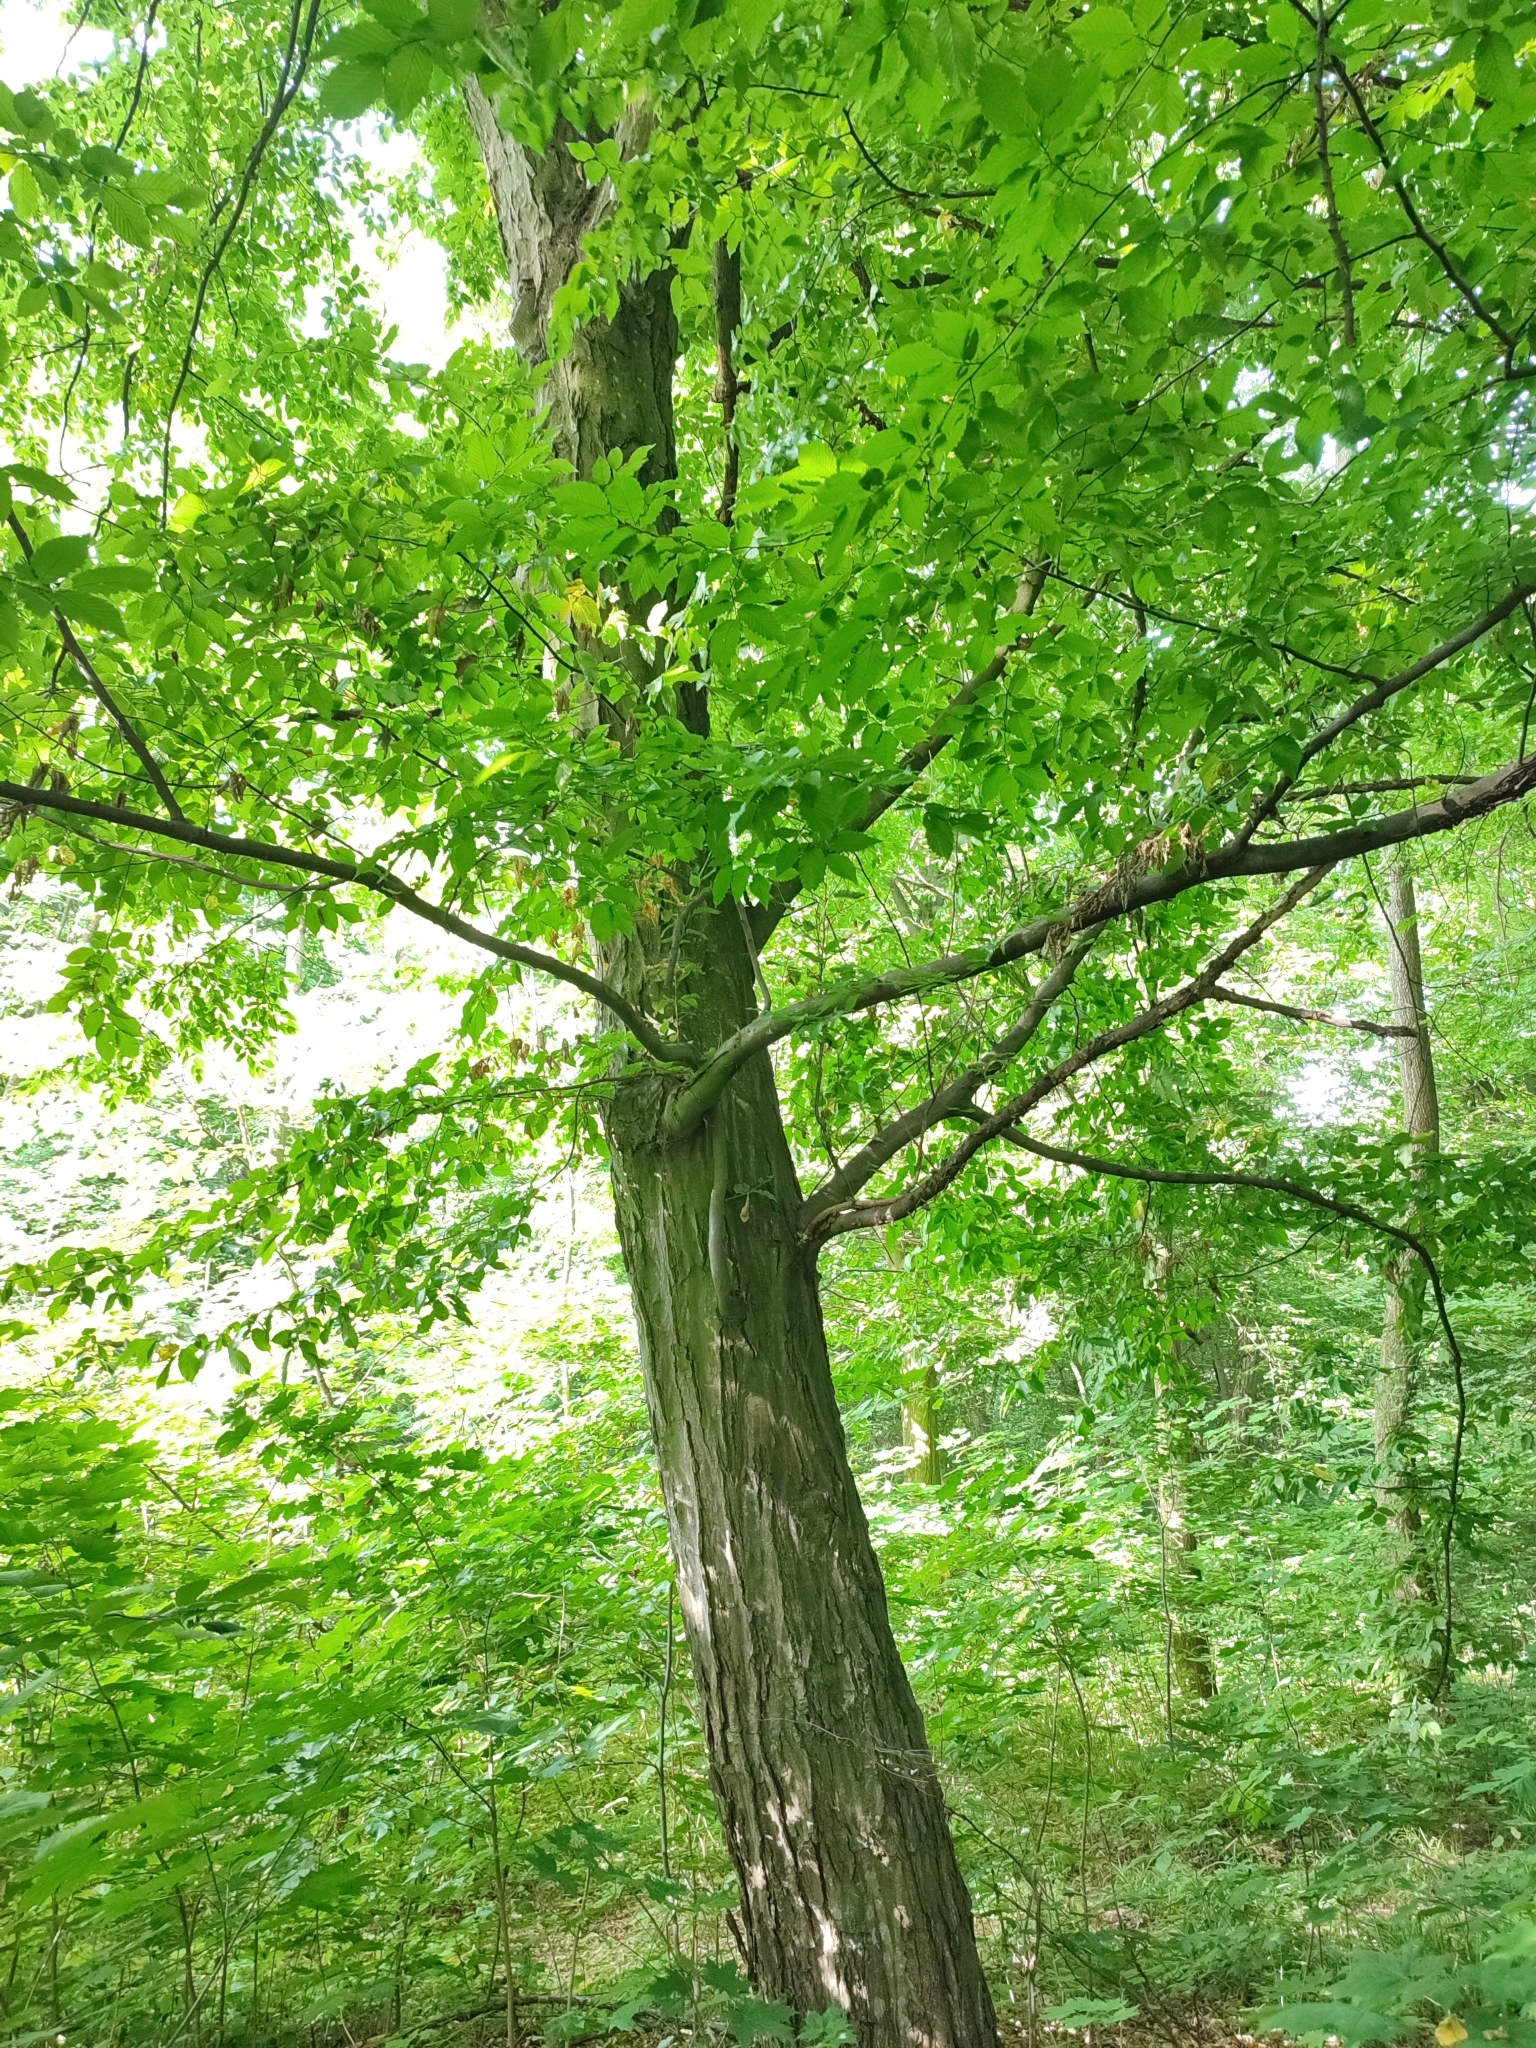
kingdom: Plantae
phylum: Tracheophyta
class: Magnoliopsida
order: Fagales
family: Betulaceae
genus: Carpinus
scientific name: Carpinus betulus
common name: Hornbeam
